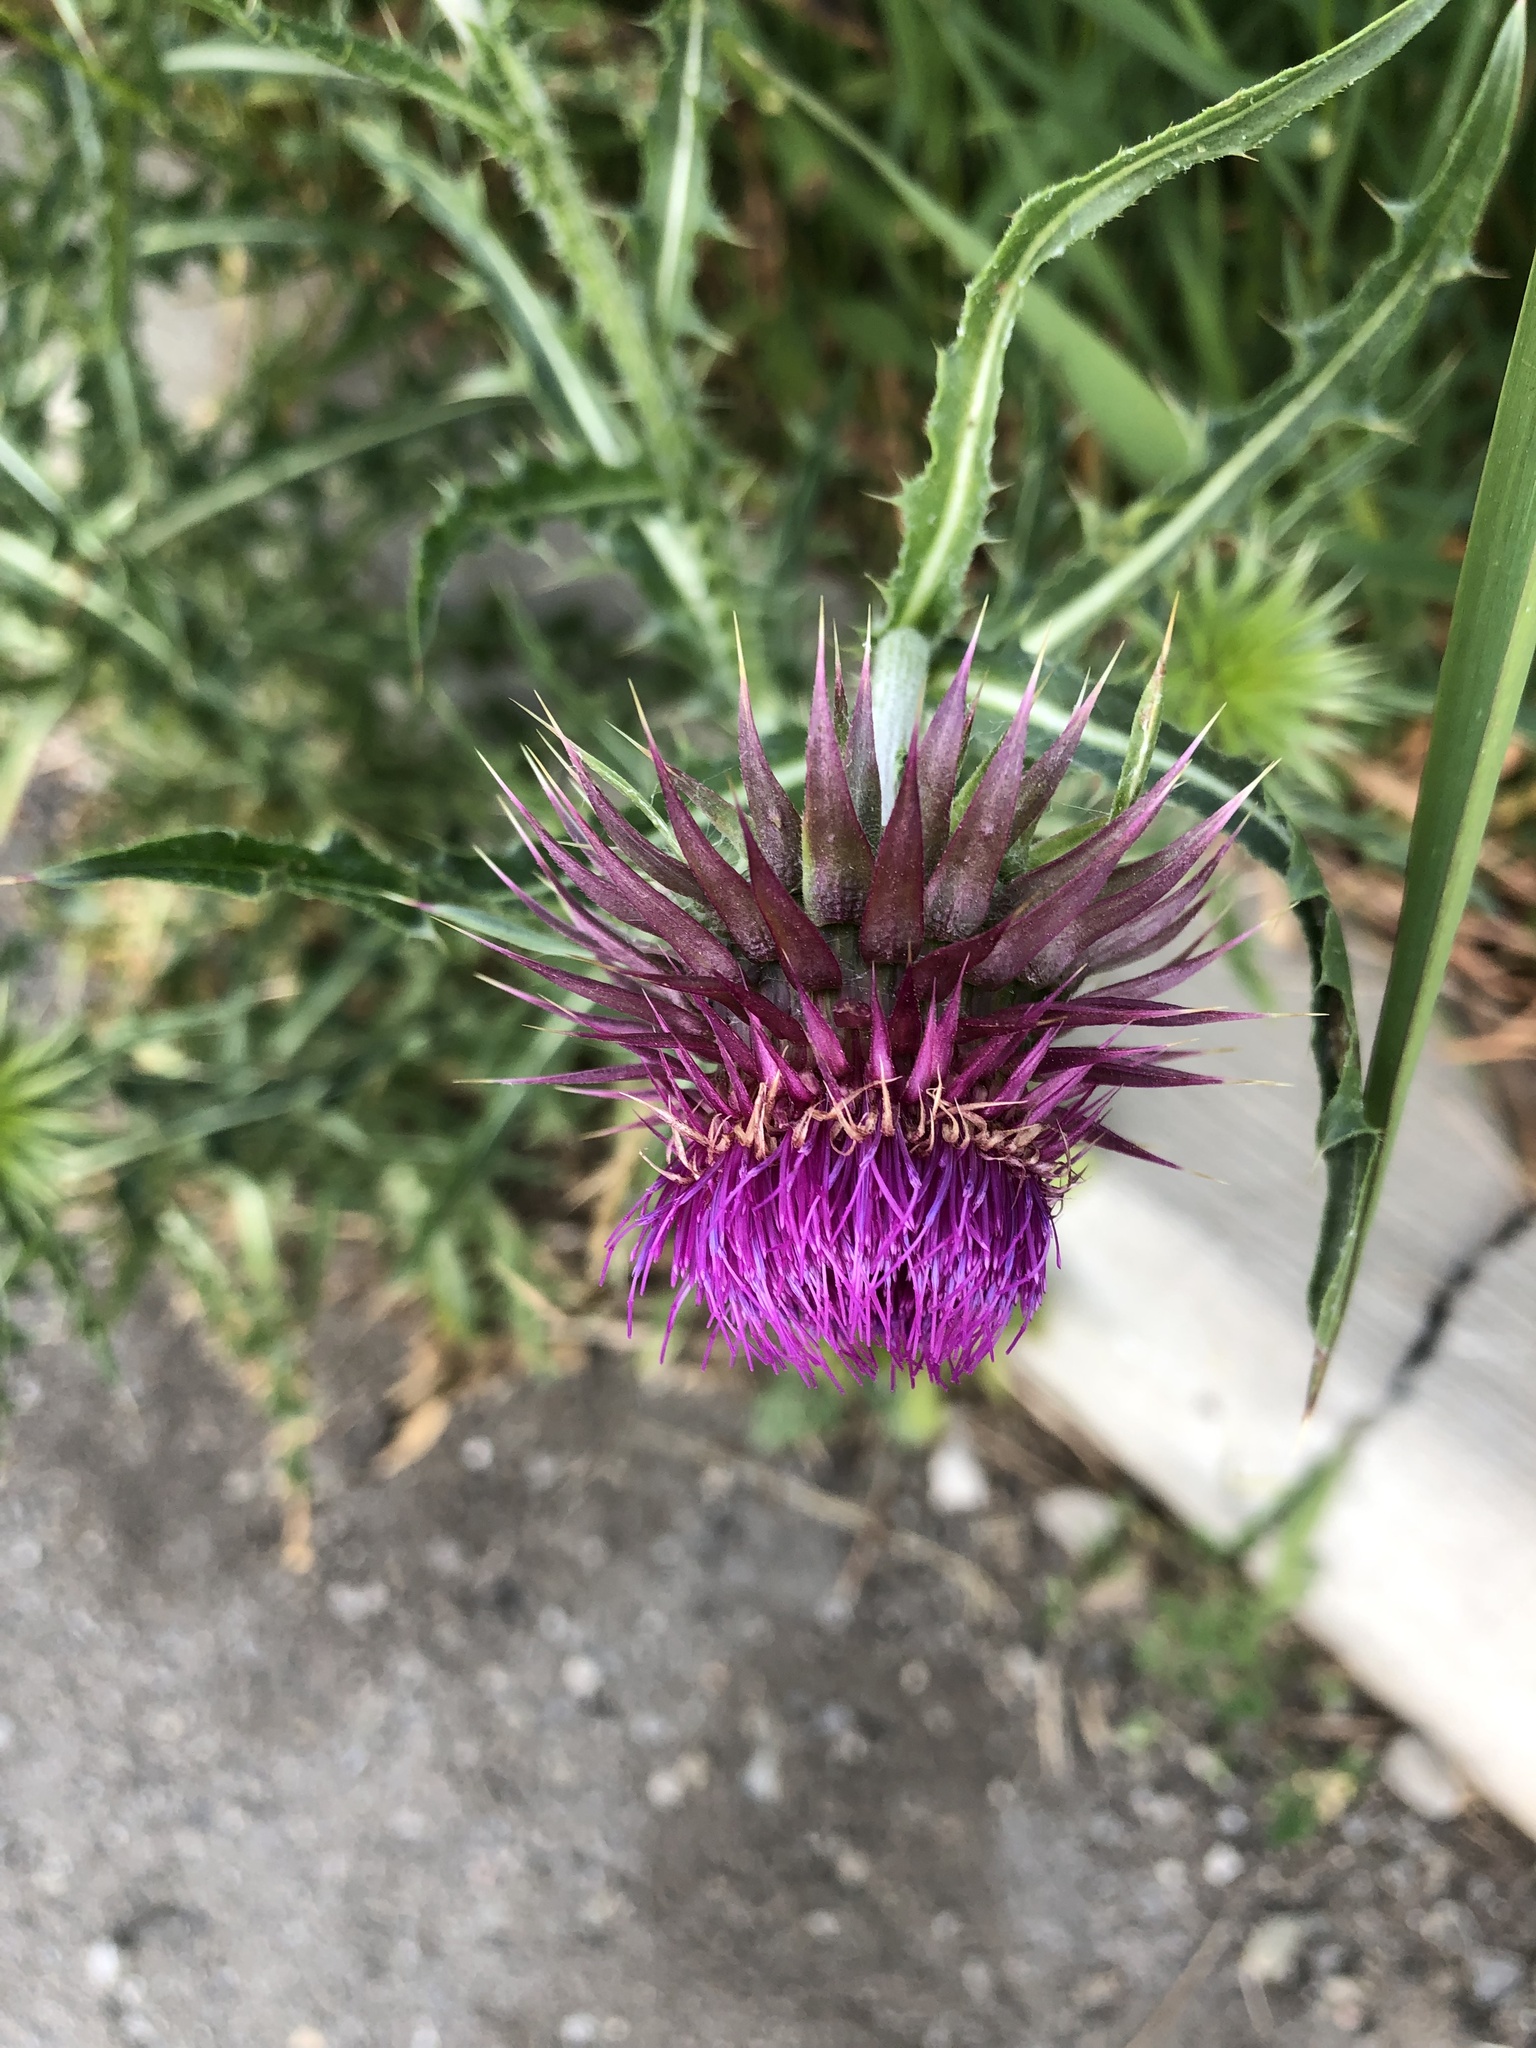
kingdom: Plantae
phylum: Tracheophyta
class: Magnoliopsida
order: Asterales
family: Asteraceae
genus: Carduus
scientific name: Carduus nutans
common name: Musk thistle
